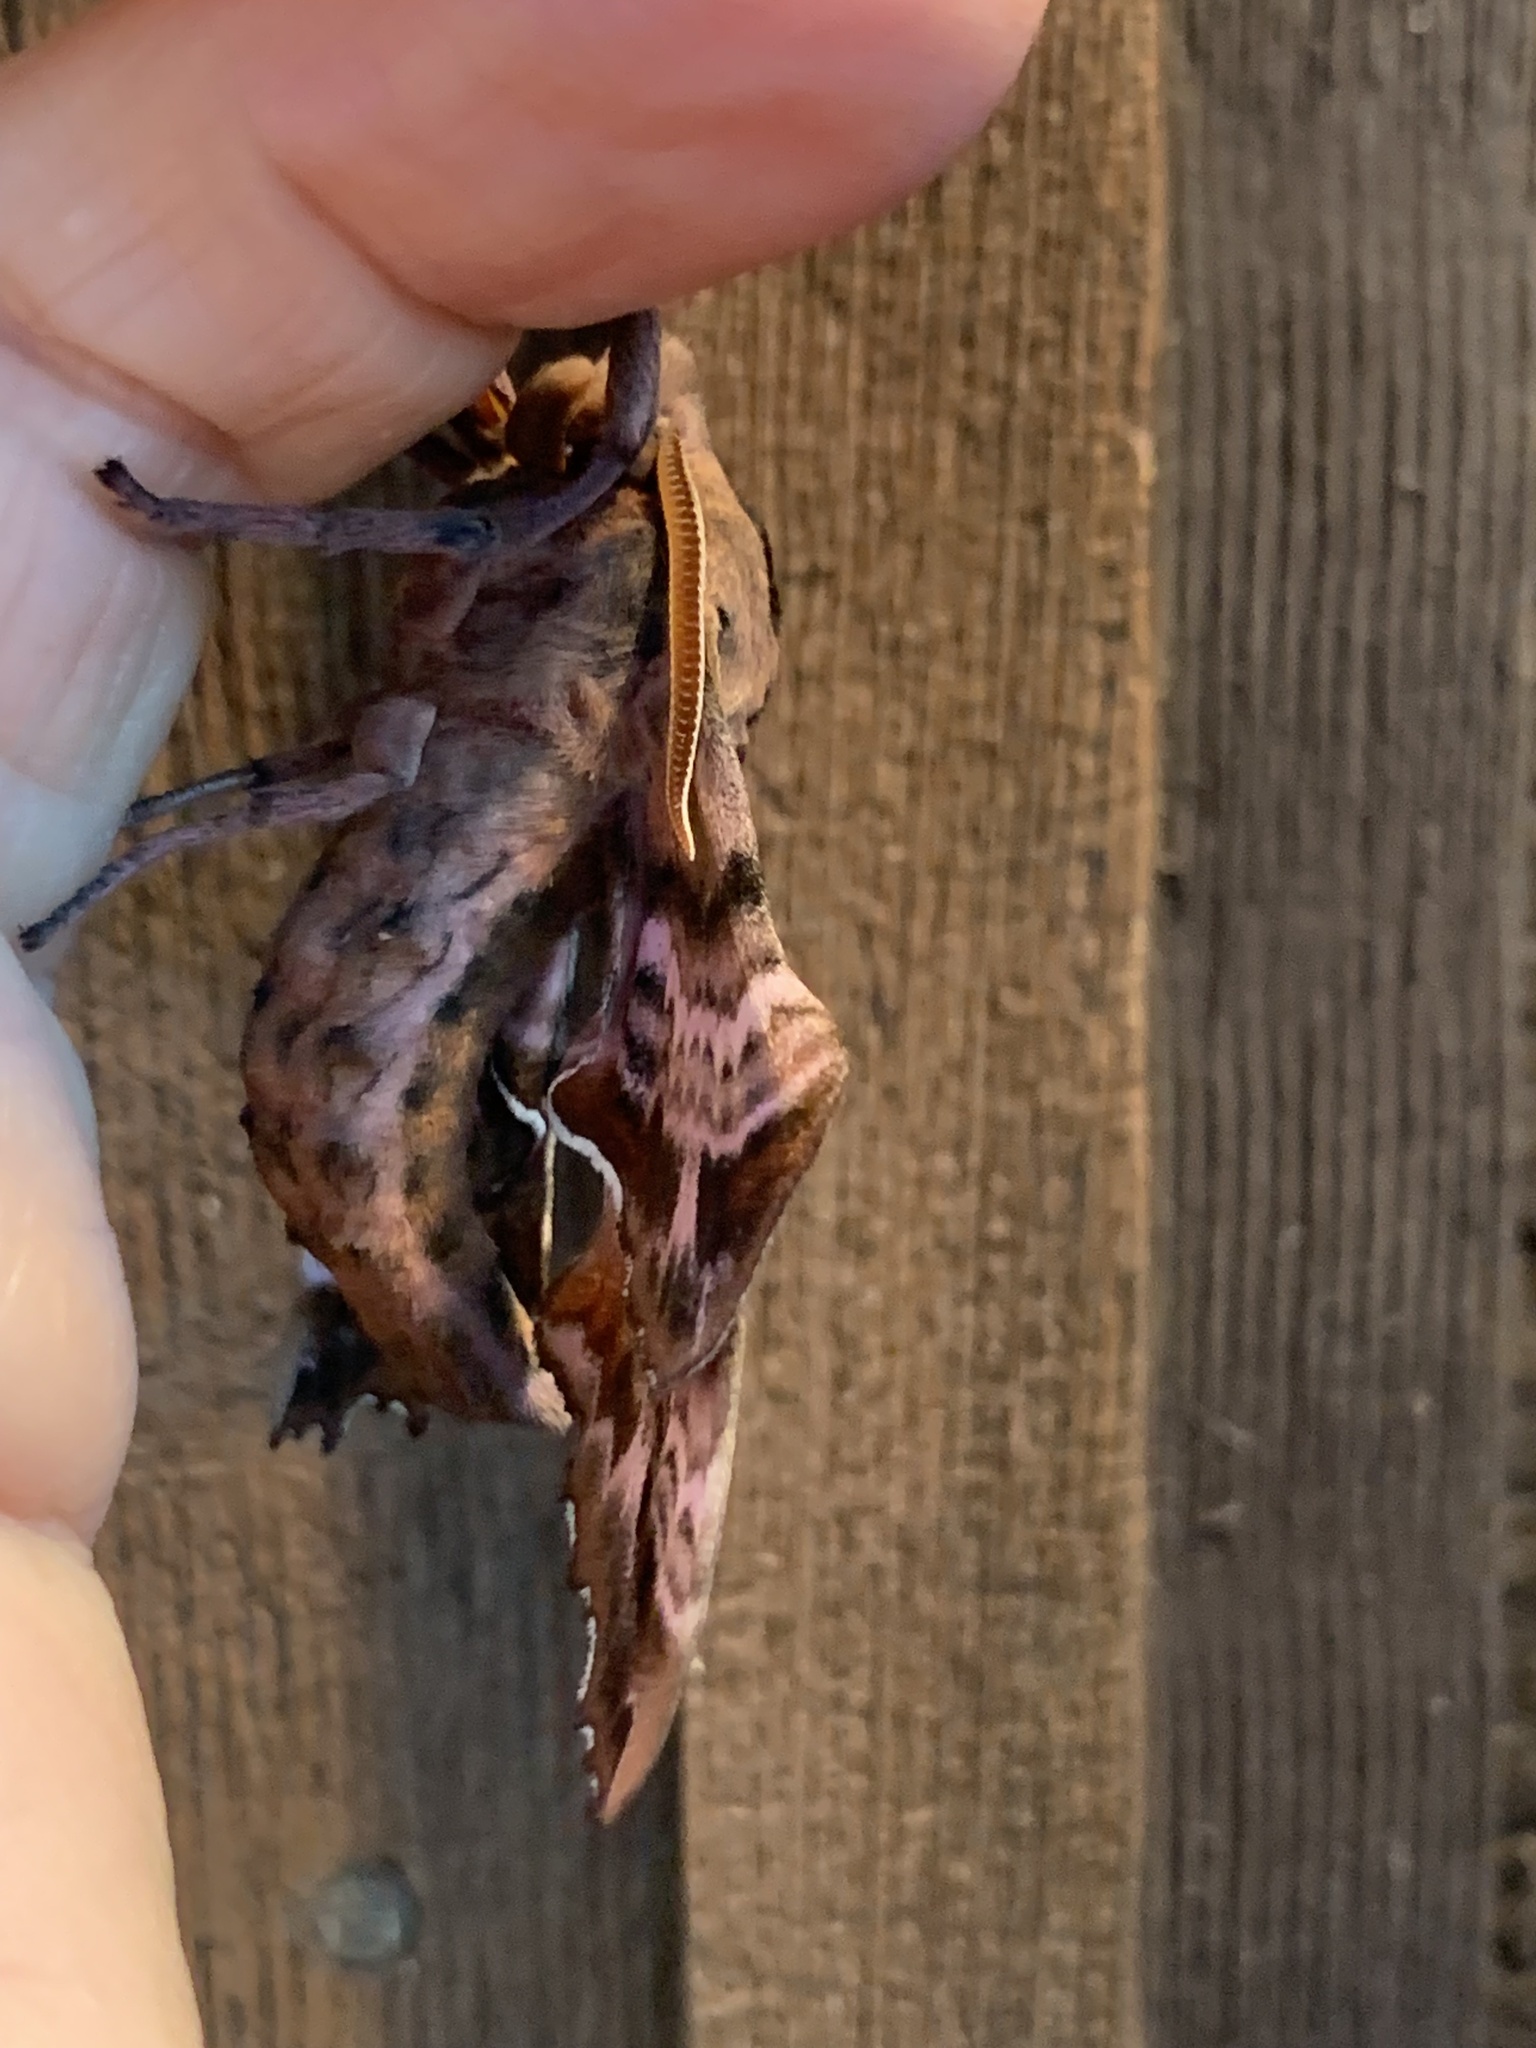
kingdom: Animalia
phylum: Arthropoda
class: Insecta
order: Lepidoptera
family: Sphingidae
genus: Paonias
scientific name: Paonias excaecata
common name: Blind-eyed sphinx
